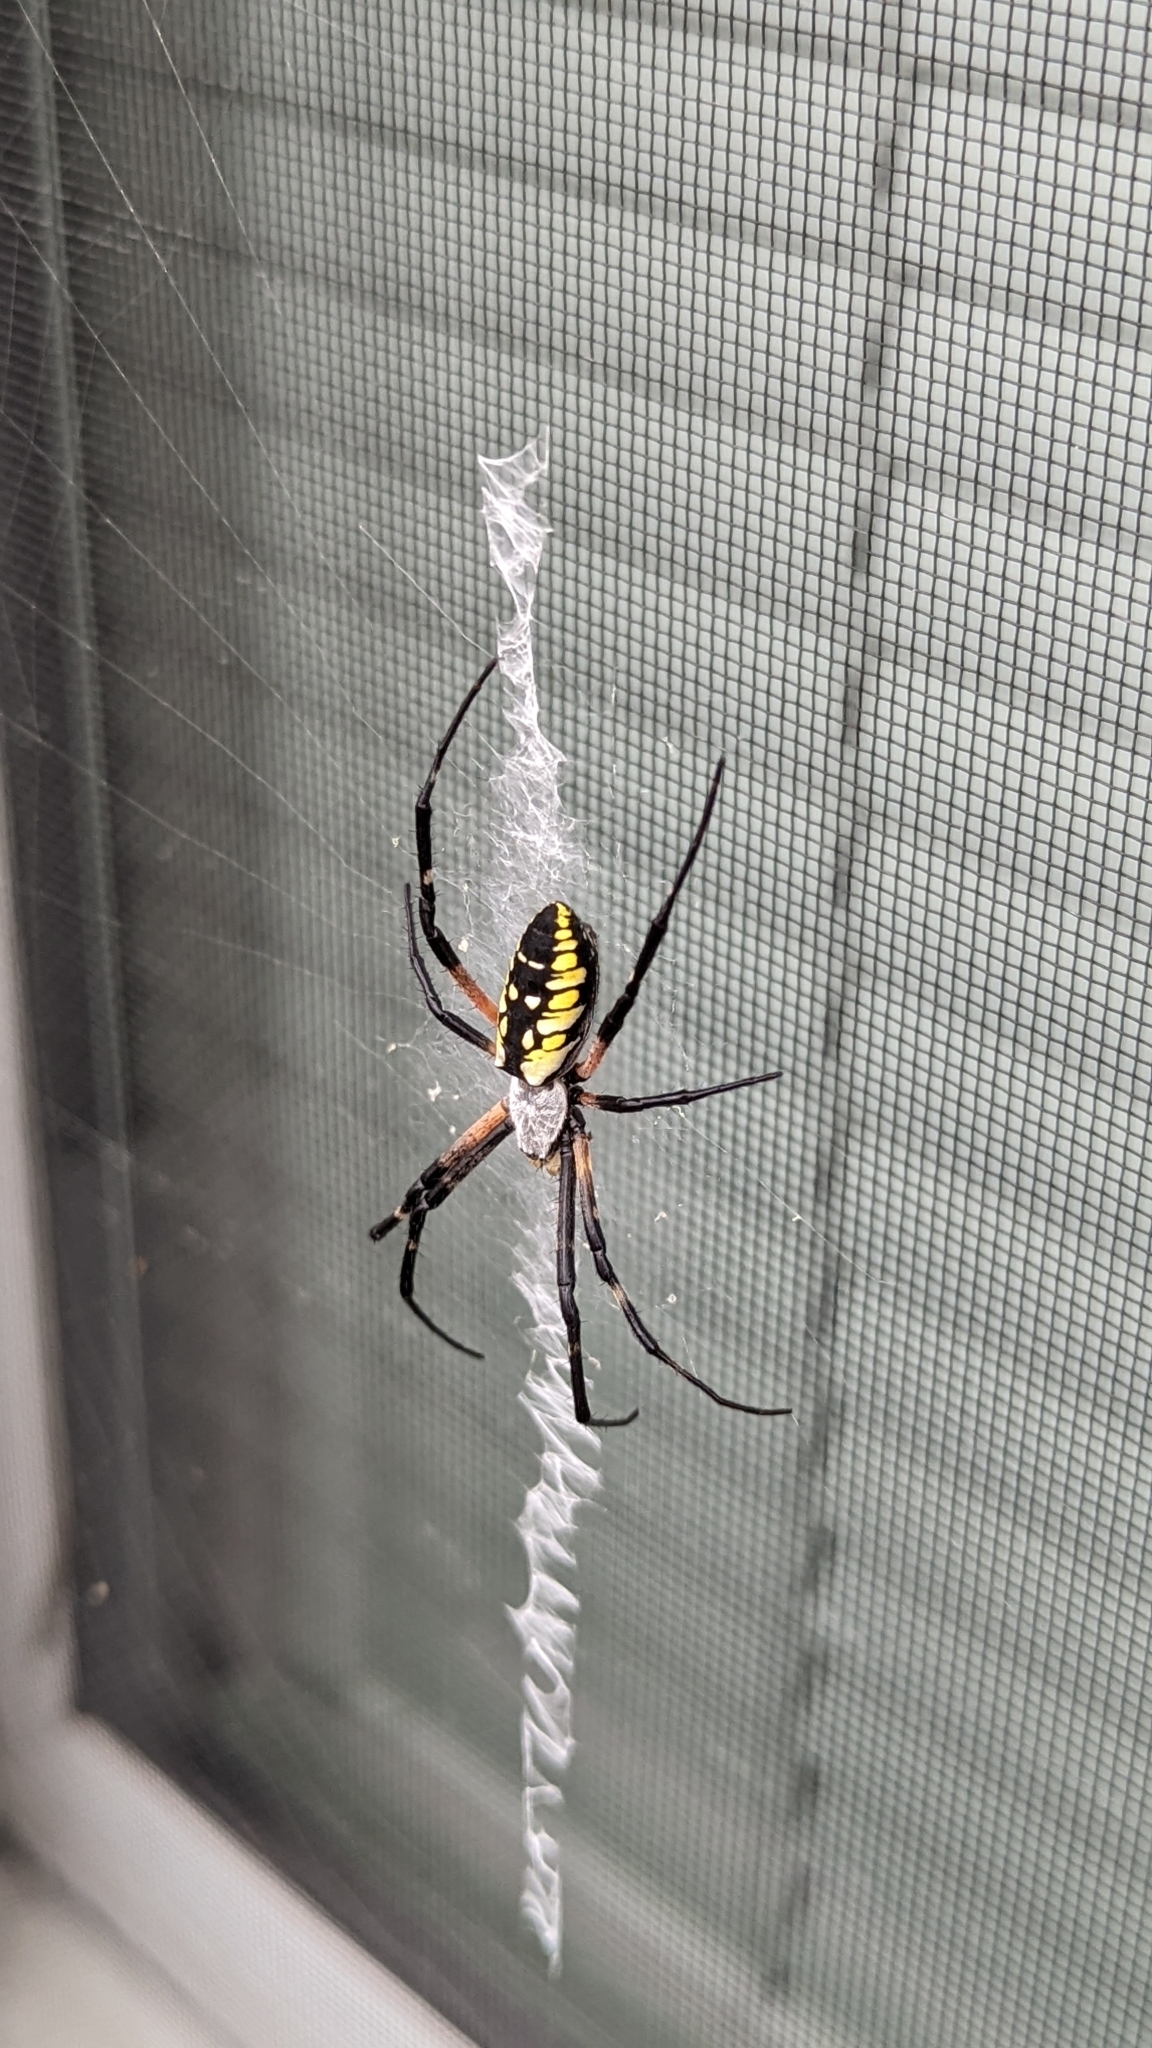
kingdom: Animalia
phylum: Arthropoda
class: Arachnida
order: Araneae
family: Araneidae
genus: Argiope
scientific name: Argiope aurantia
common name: Orb weavers
